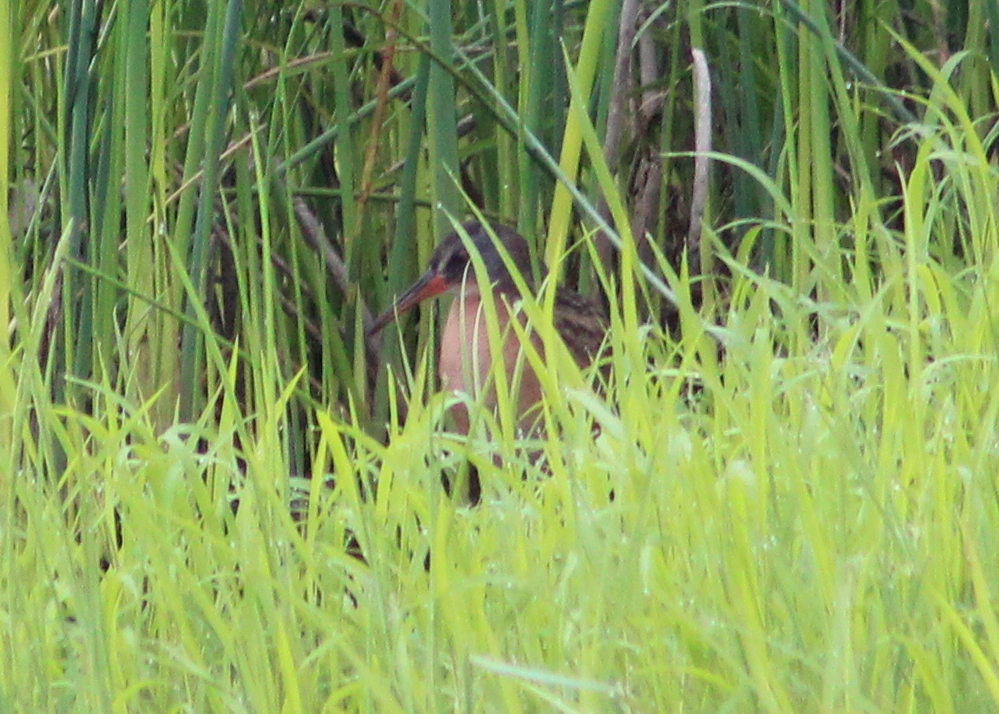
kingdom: Animalia
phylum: Chordata
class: Aves
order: Gruiformes
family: Rallidae
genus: Rallus
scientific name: Rallus limicola
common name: Virginia rail
